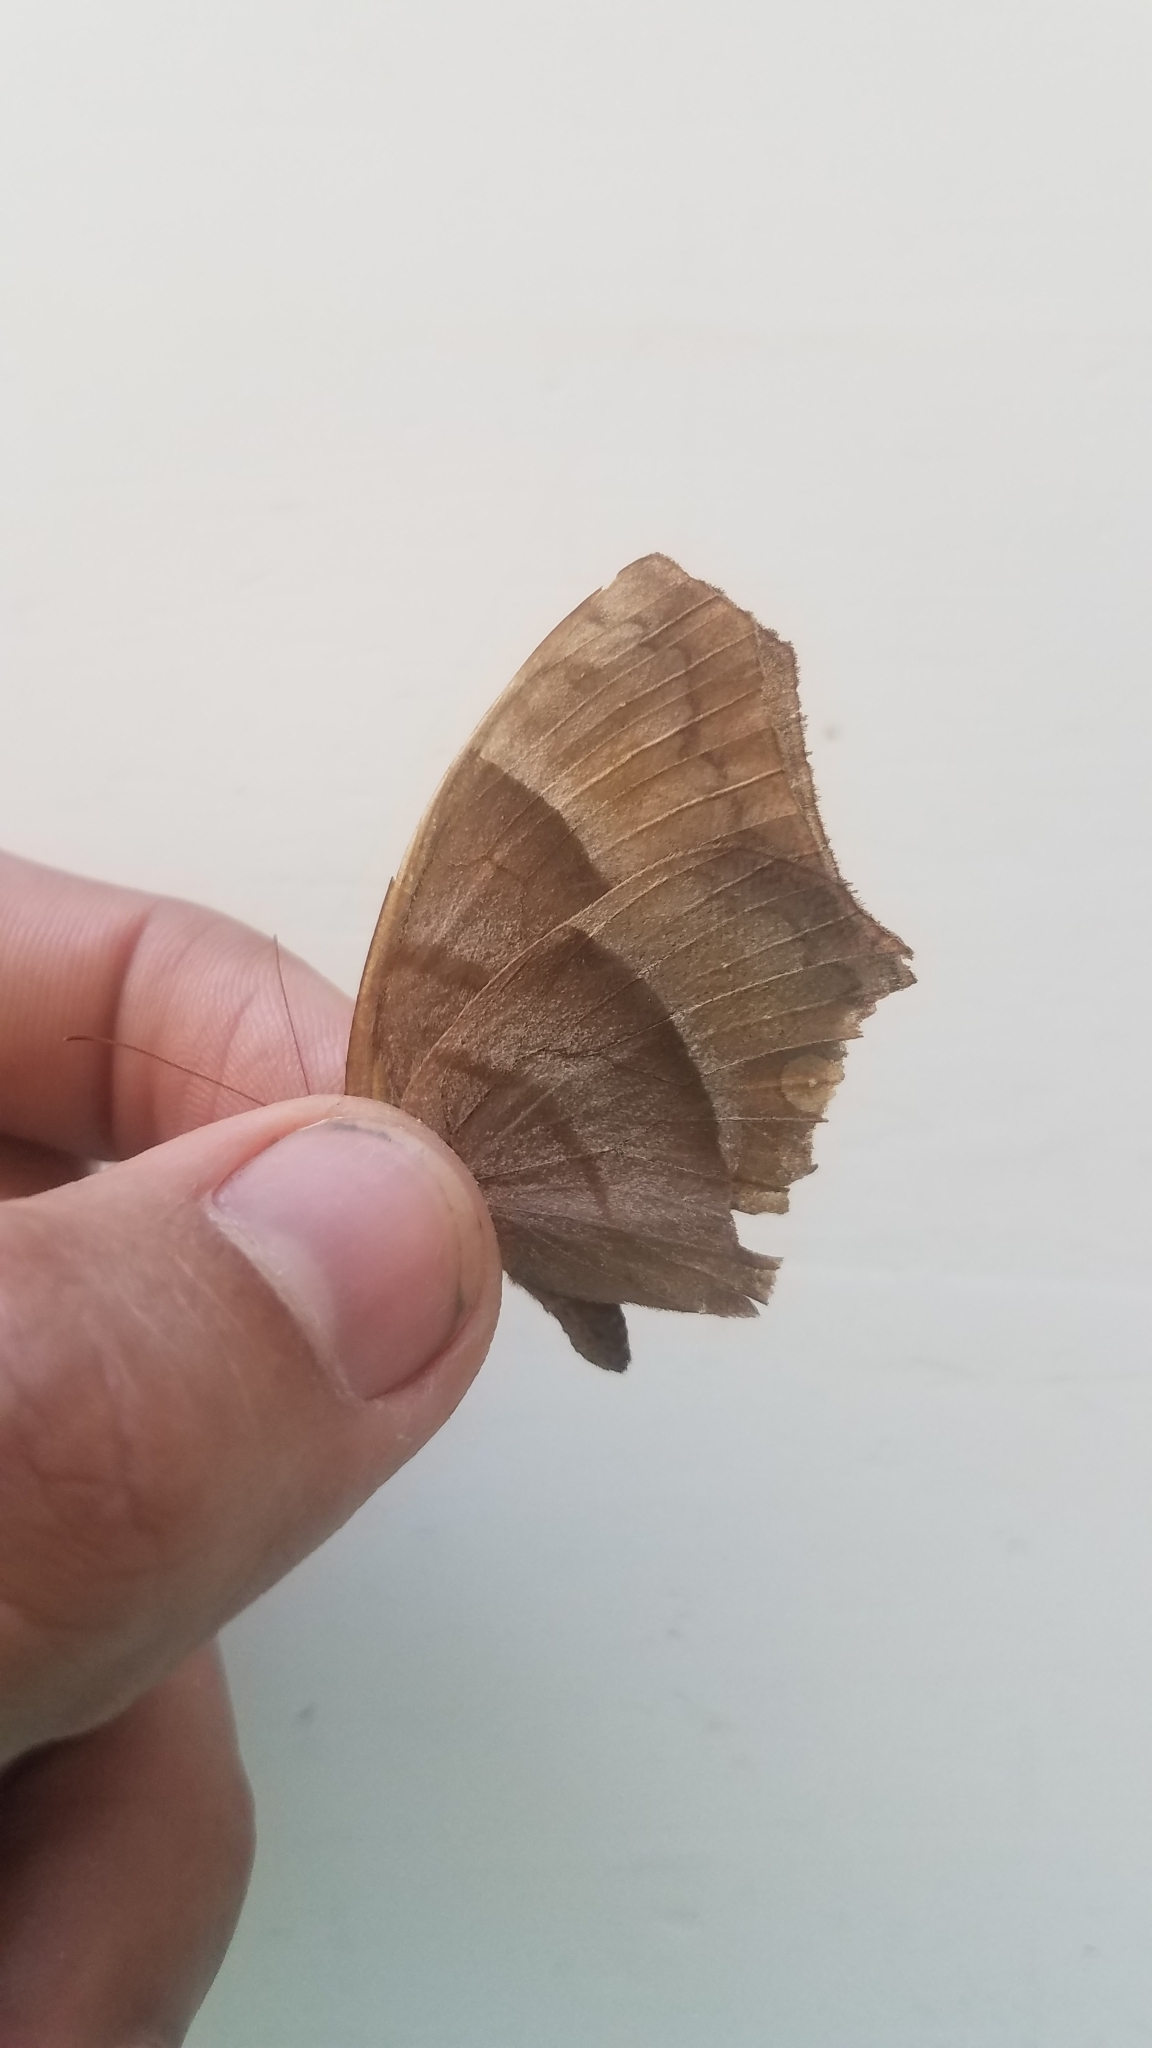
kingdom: Animalia
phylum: Arthropoda
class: Insecta
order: Lepidoptera
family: Nymphalidae
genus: Taygetis
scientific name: Taygetis inconspicua
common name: Inconspicuous satyr
